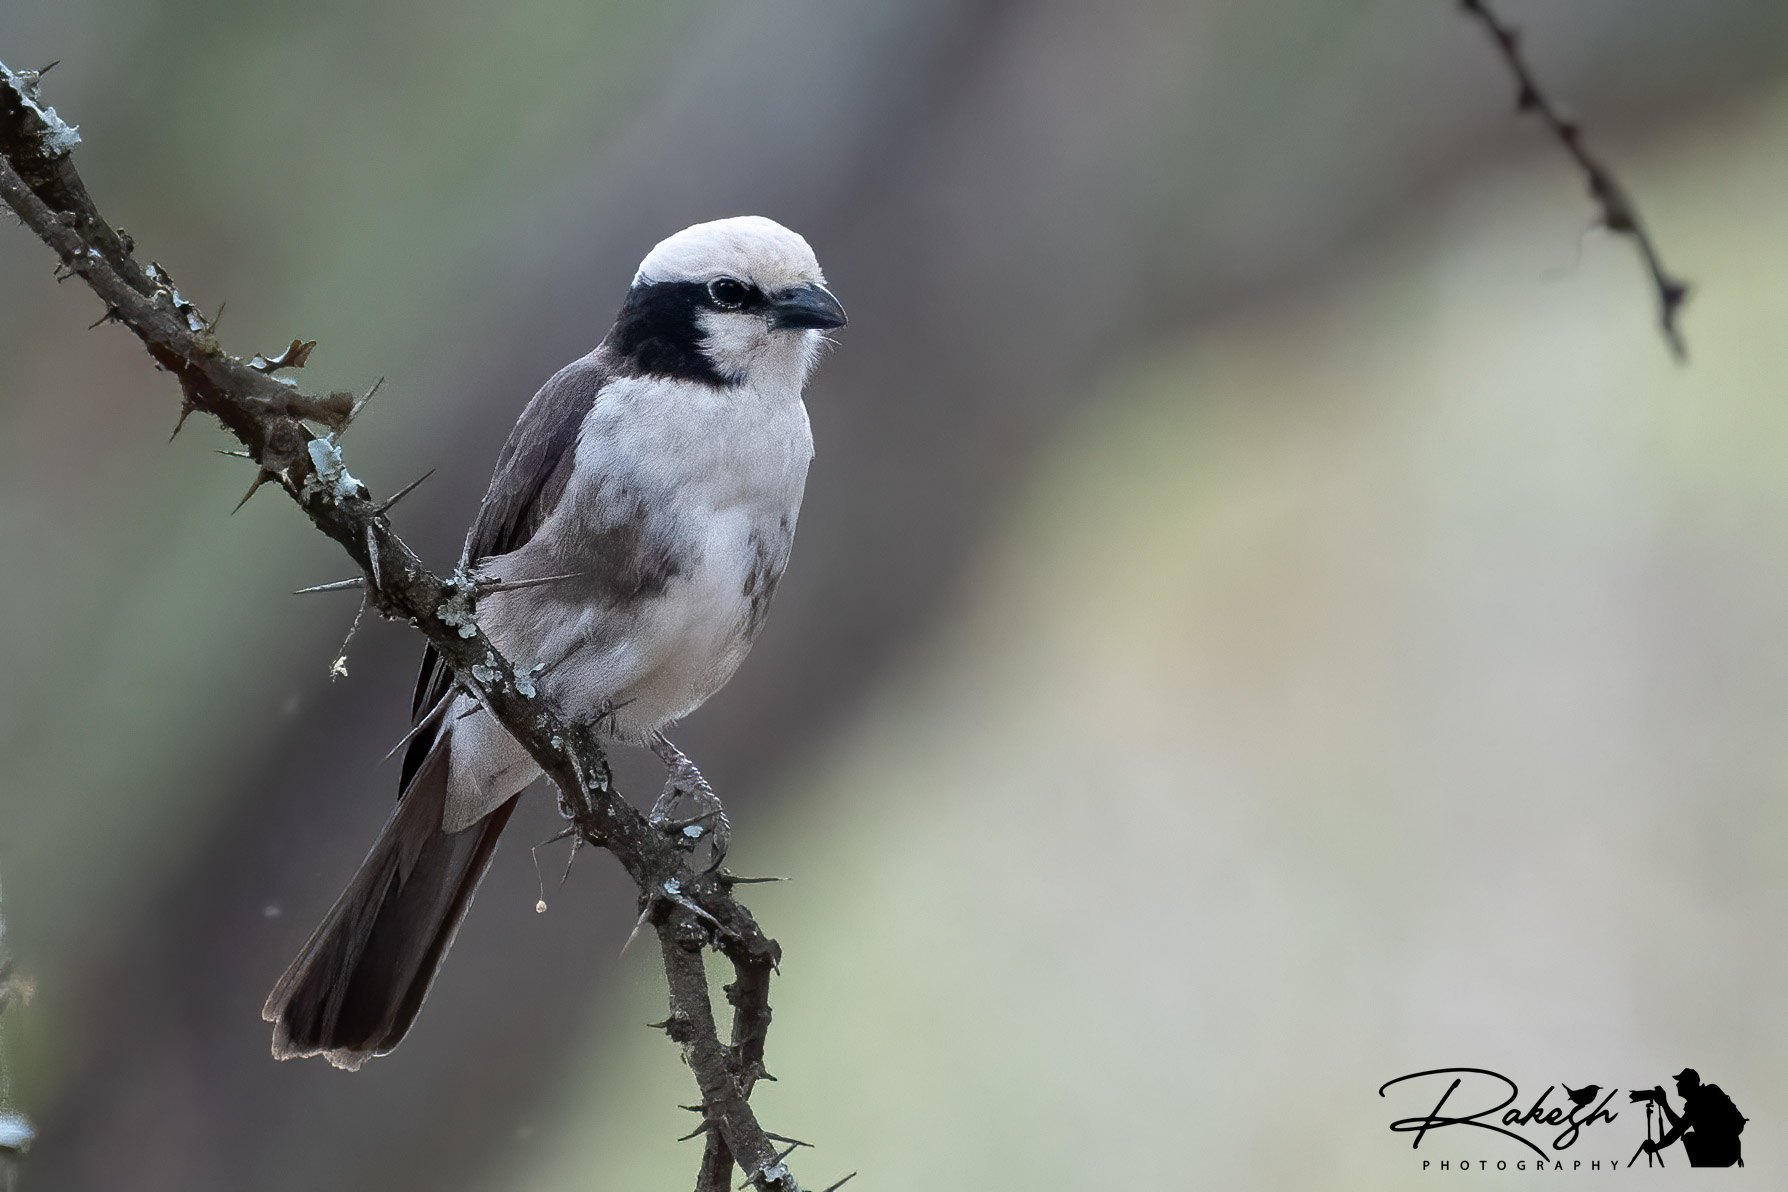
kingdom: Animalia
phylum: Chordata
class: Aves
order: Passeriformes
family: Laniidae
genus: Eurocephalus
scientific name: Eurocephalus ruppelli
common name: Northern white-crowned shrike
